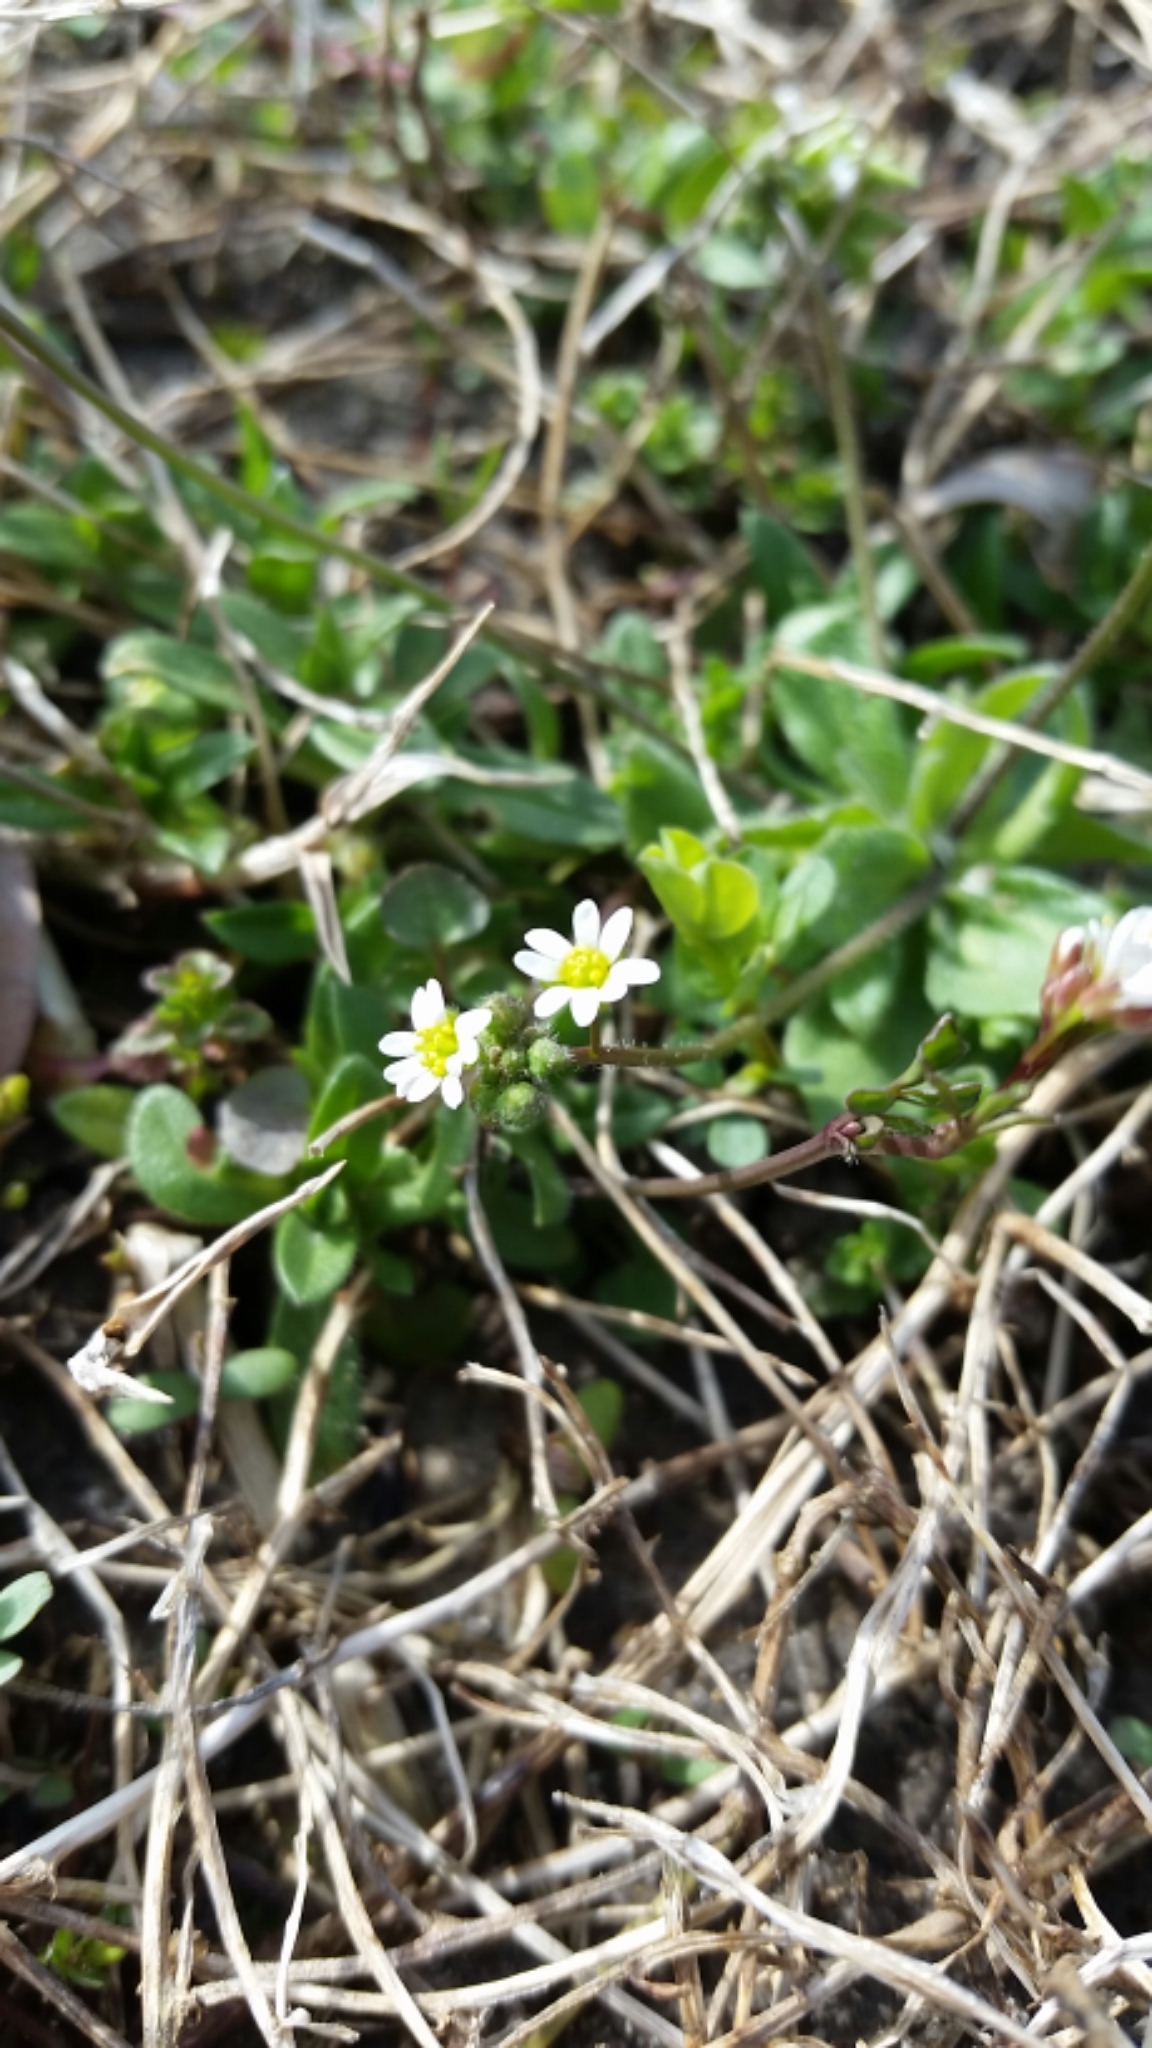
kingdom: Plantae
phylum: Tracheophyta
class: Magnoliopsida
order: Brassicales
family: Brassicaceae
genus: Draba
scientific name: Draba verna
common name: Spring draba
